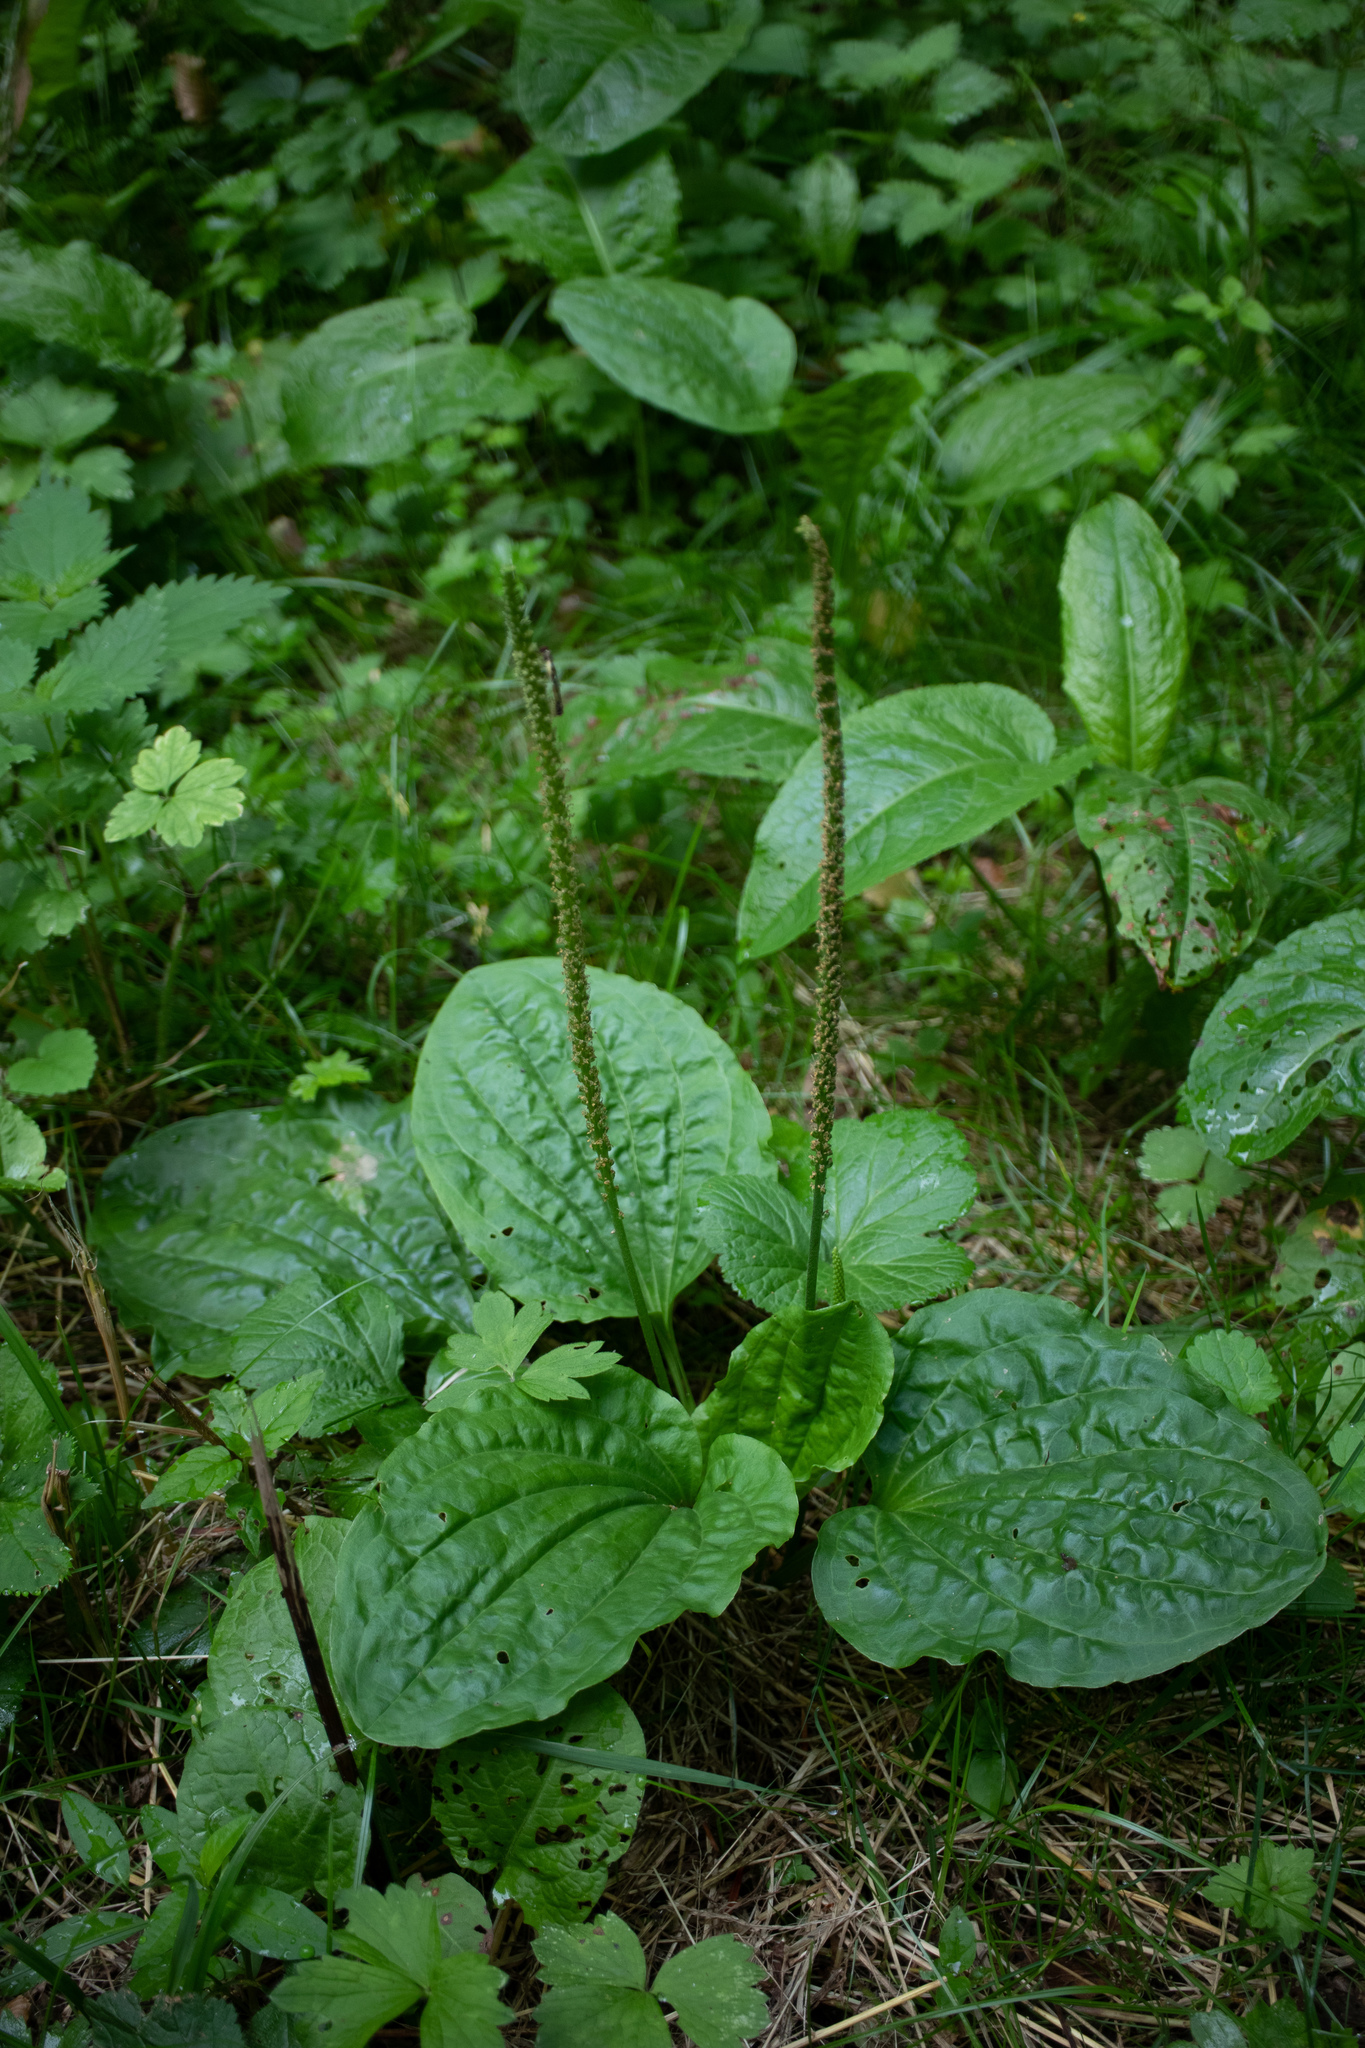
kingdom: Plantae
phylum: Tracheophyta
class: Magnoliopsida
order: Lamiales
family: Plantaginaceae
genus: Plantago
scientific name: Plantago major
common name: Common plantain
